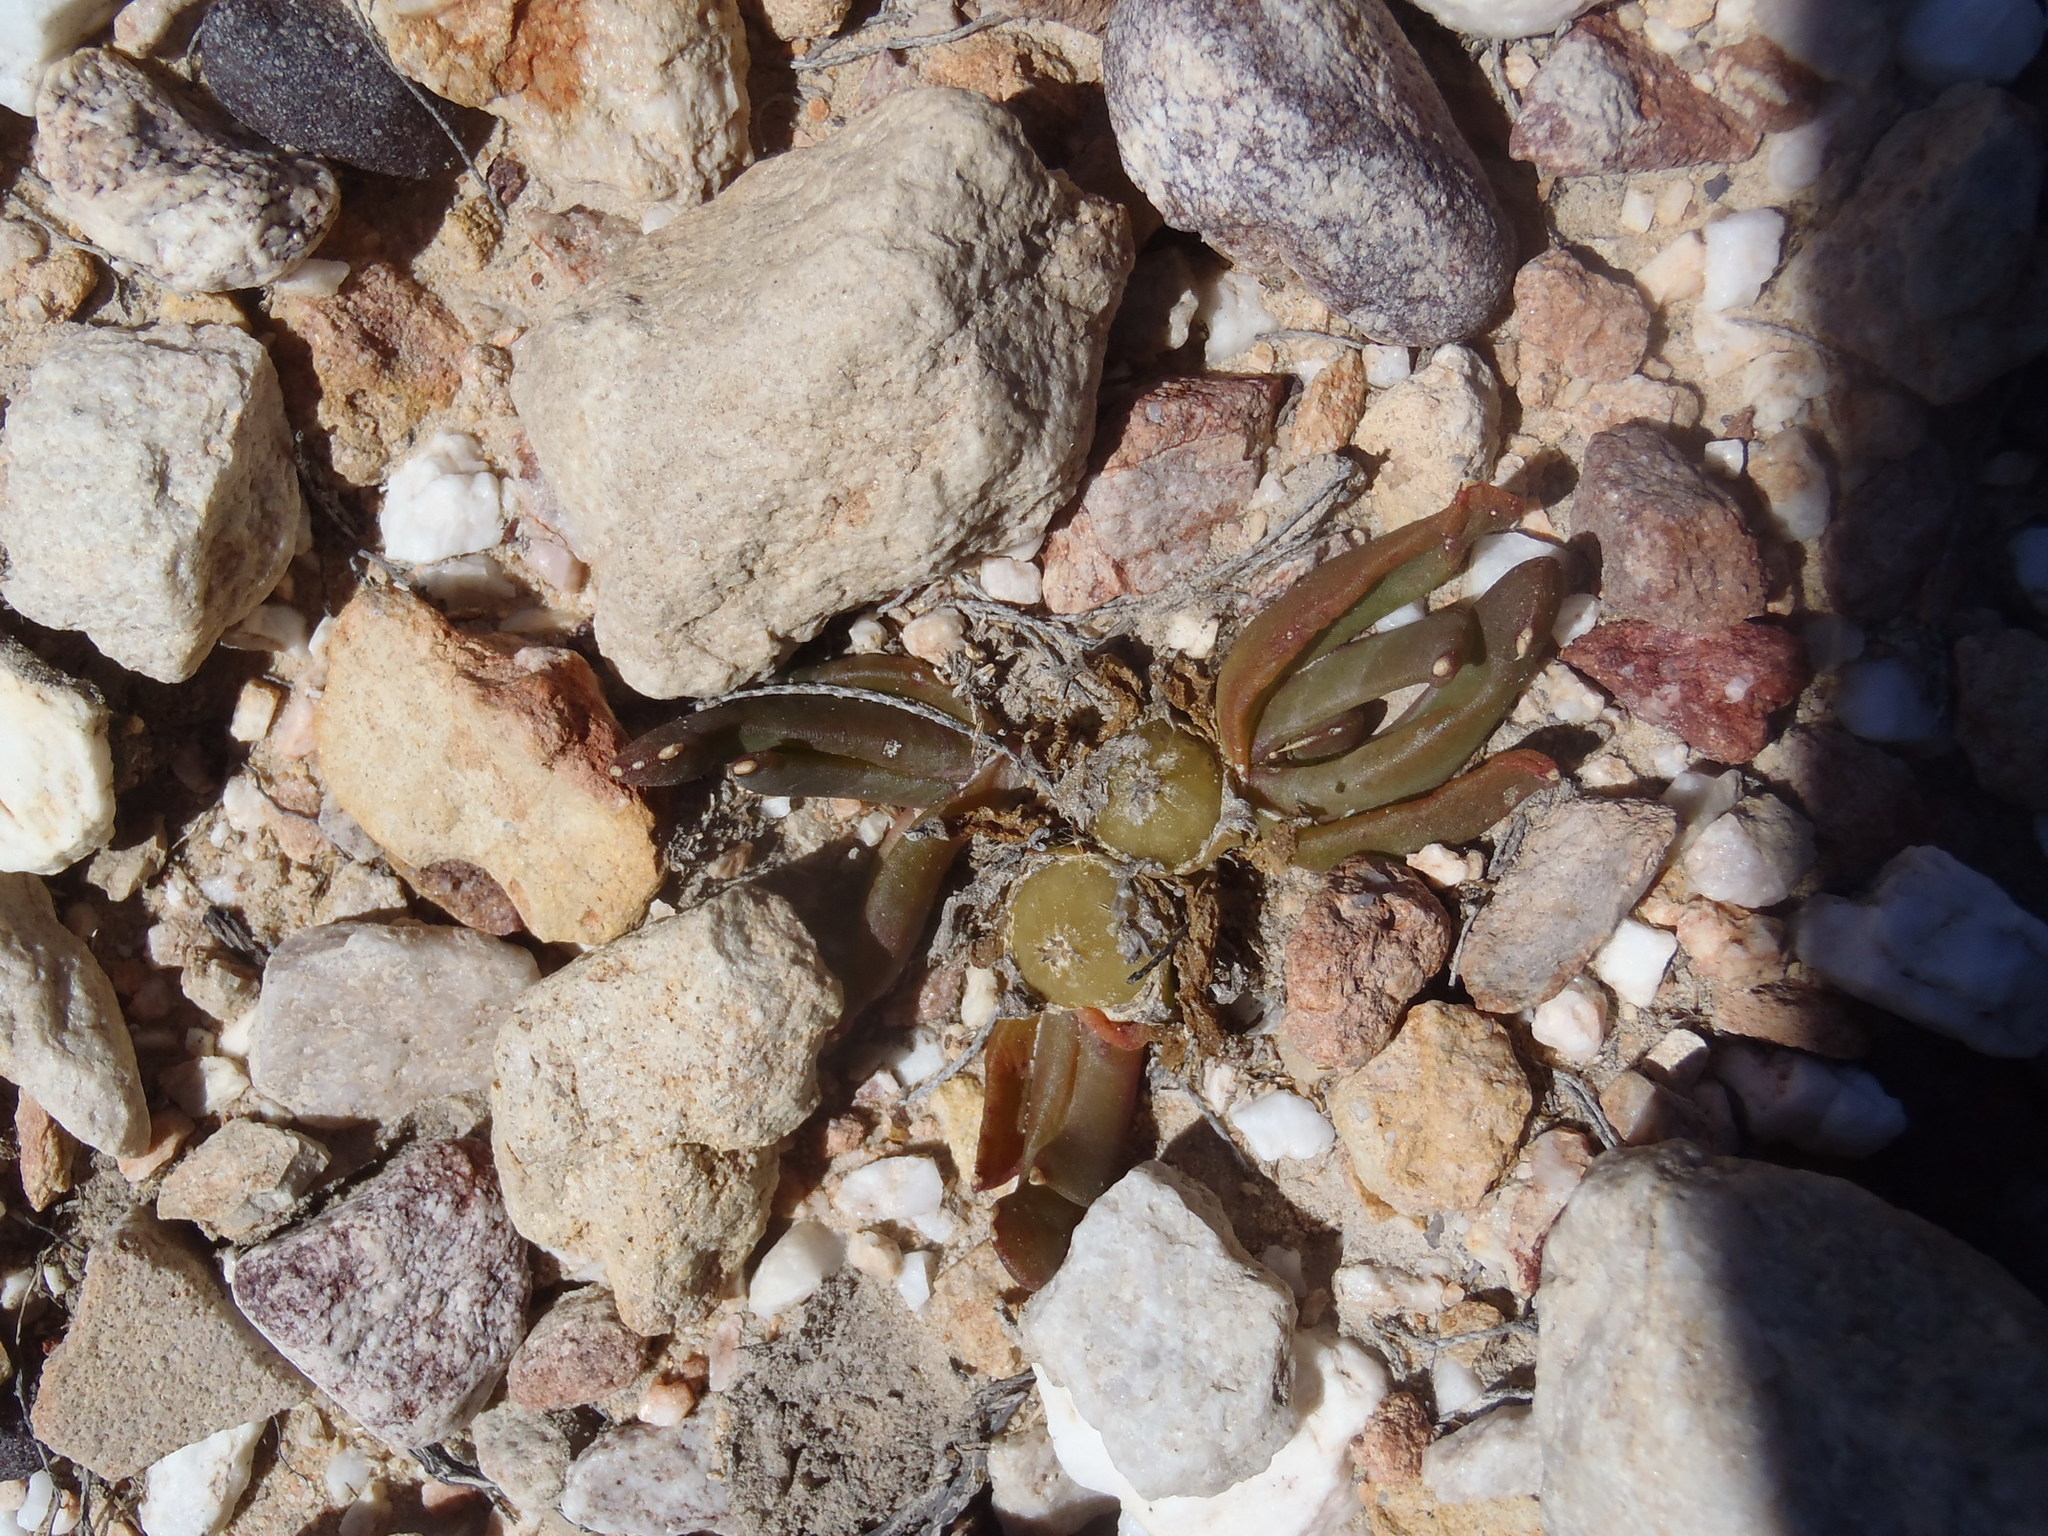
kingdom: Plantae
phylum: Tracheophyta
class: Magnoliopsida
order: Caryophyllales
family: Aizoaceae
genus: Glottiphyllum
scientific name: Glottiphyllum depressum
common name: Fig-marigold
